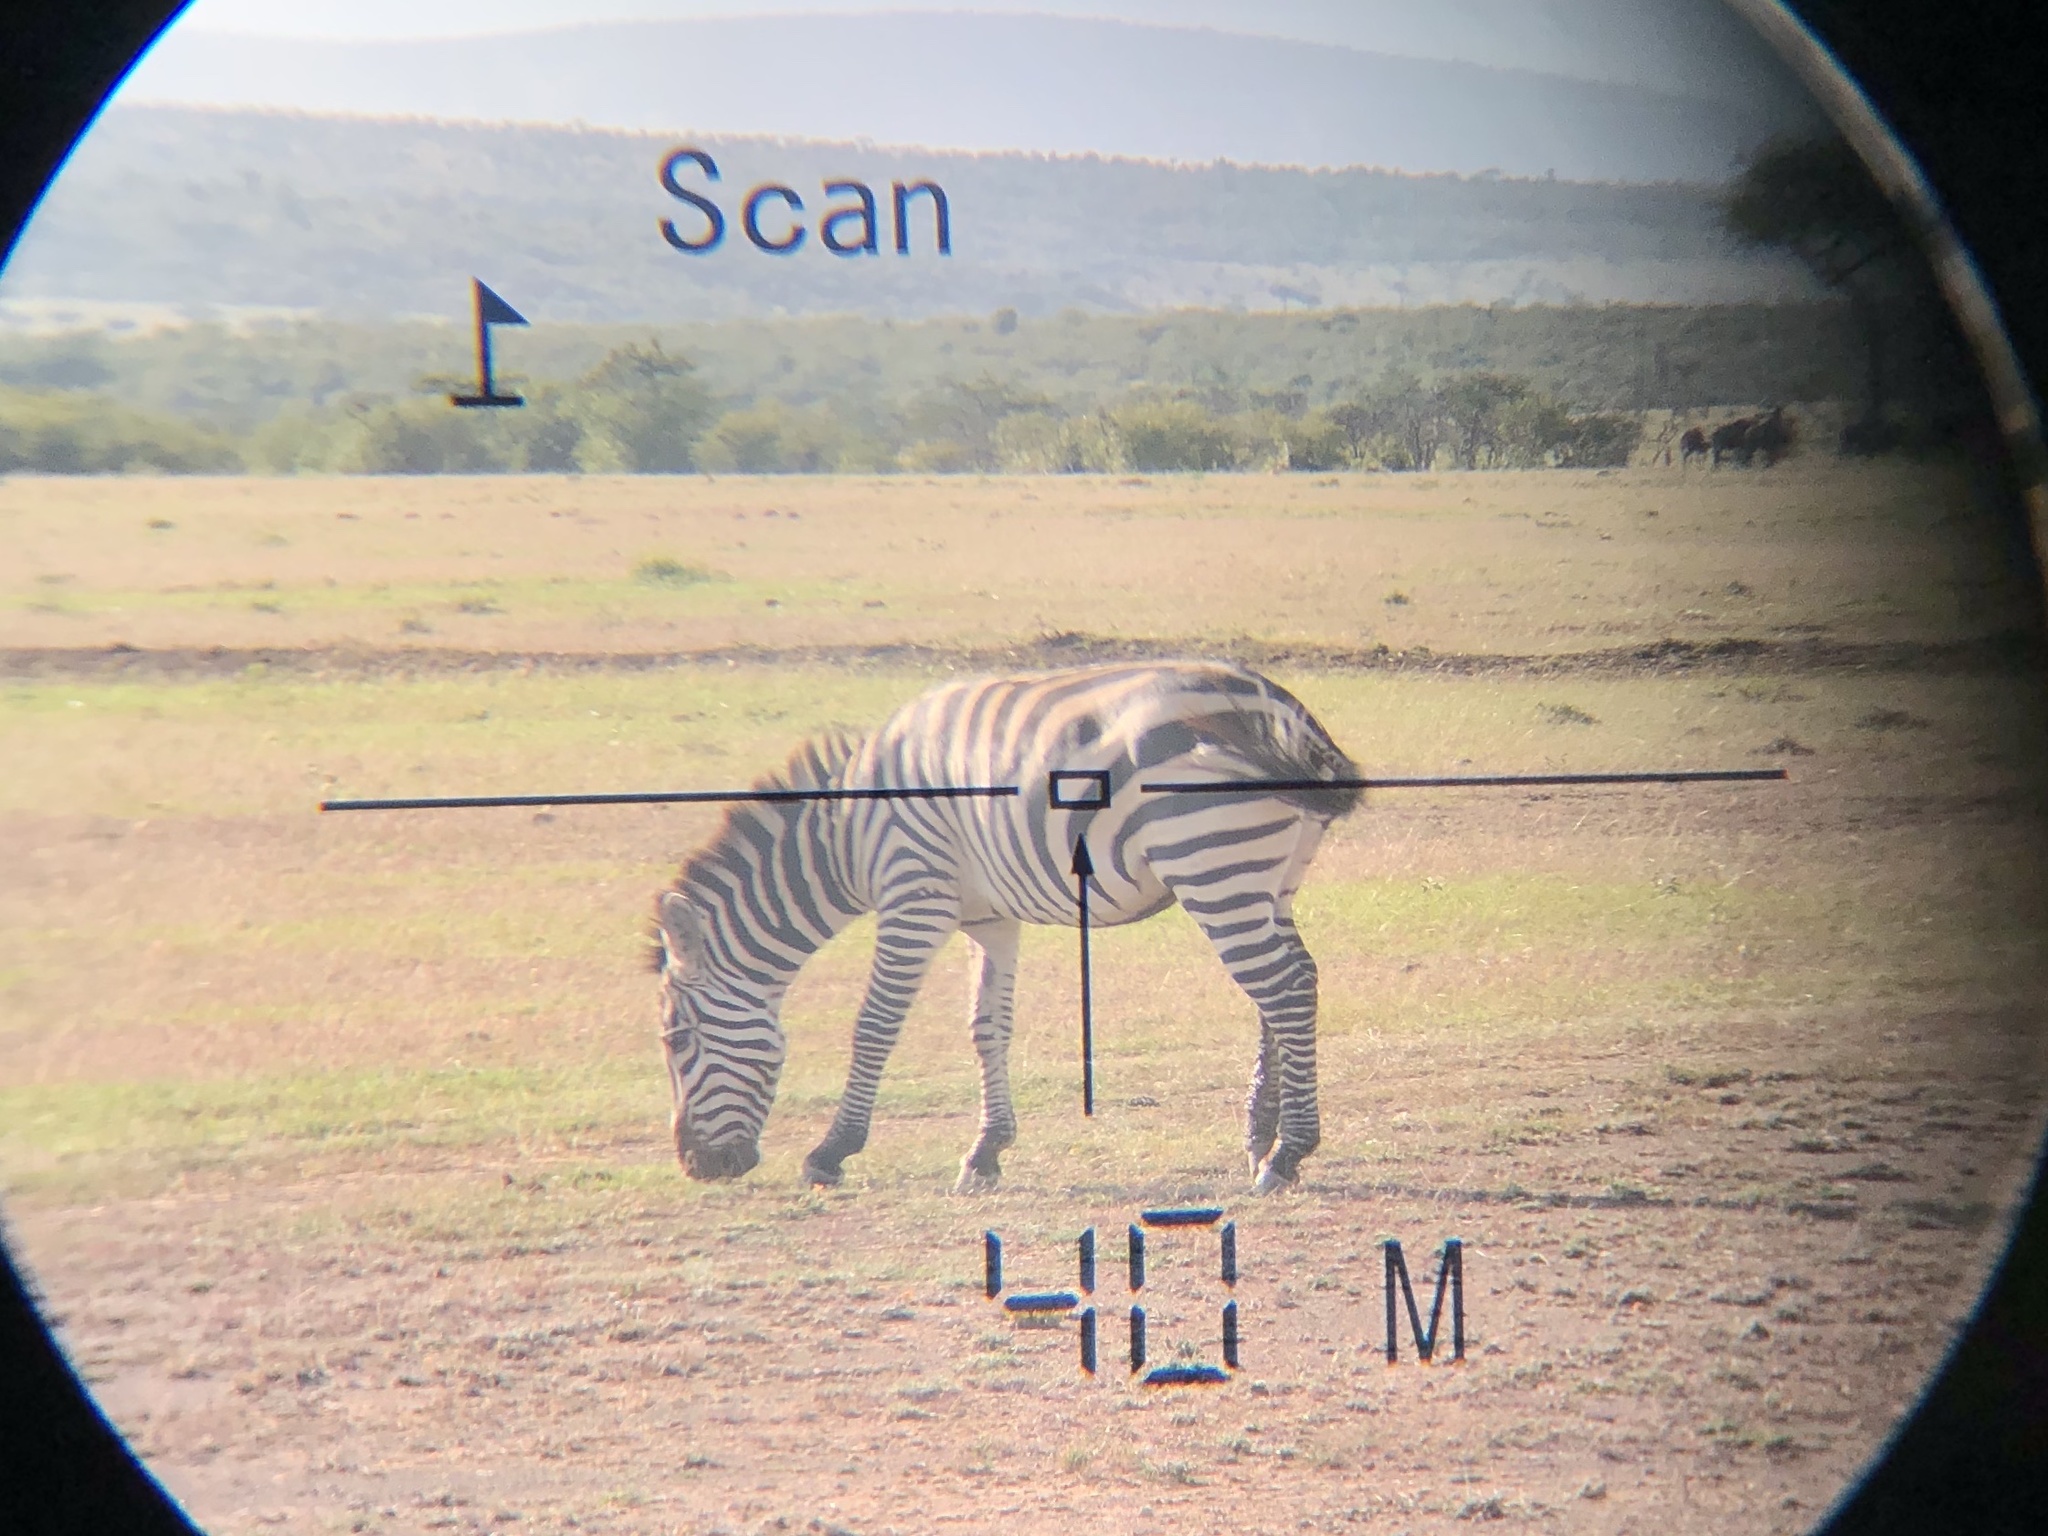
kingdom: Animalia
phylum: Chordata
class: Mammalia
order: Perissodactyla
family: Equidae
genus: Equus
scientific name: Equus quagga
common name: Plains zebra
